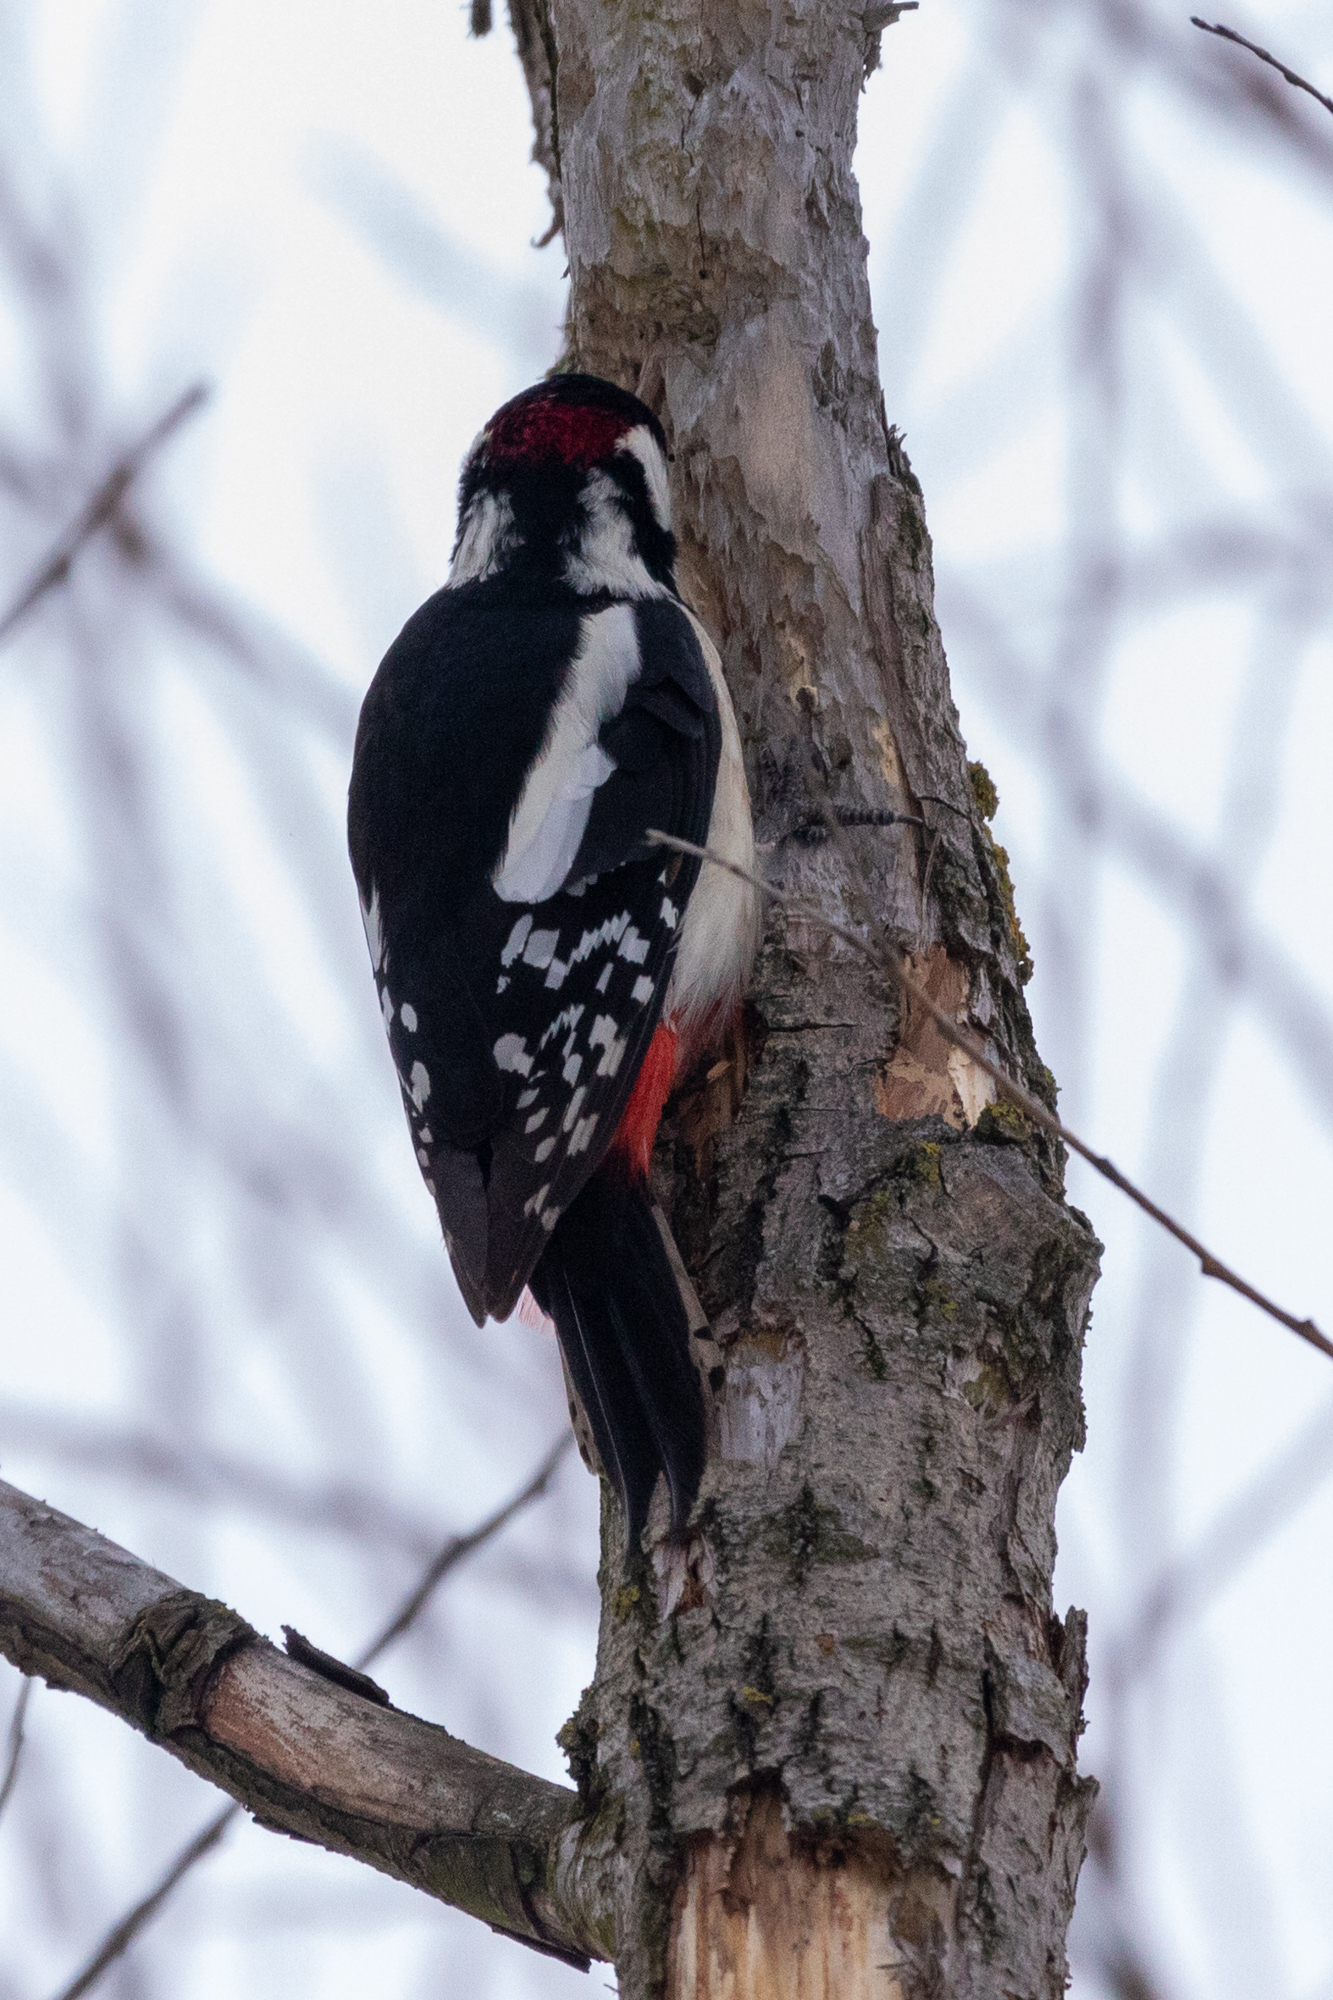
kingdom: Animalia
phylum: Chordata
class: Aves
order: Piciformes
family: Picidae
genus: Dendrocopos
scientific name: Dendrocopos major
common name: Great spotted woodpecker
